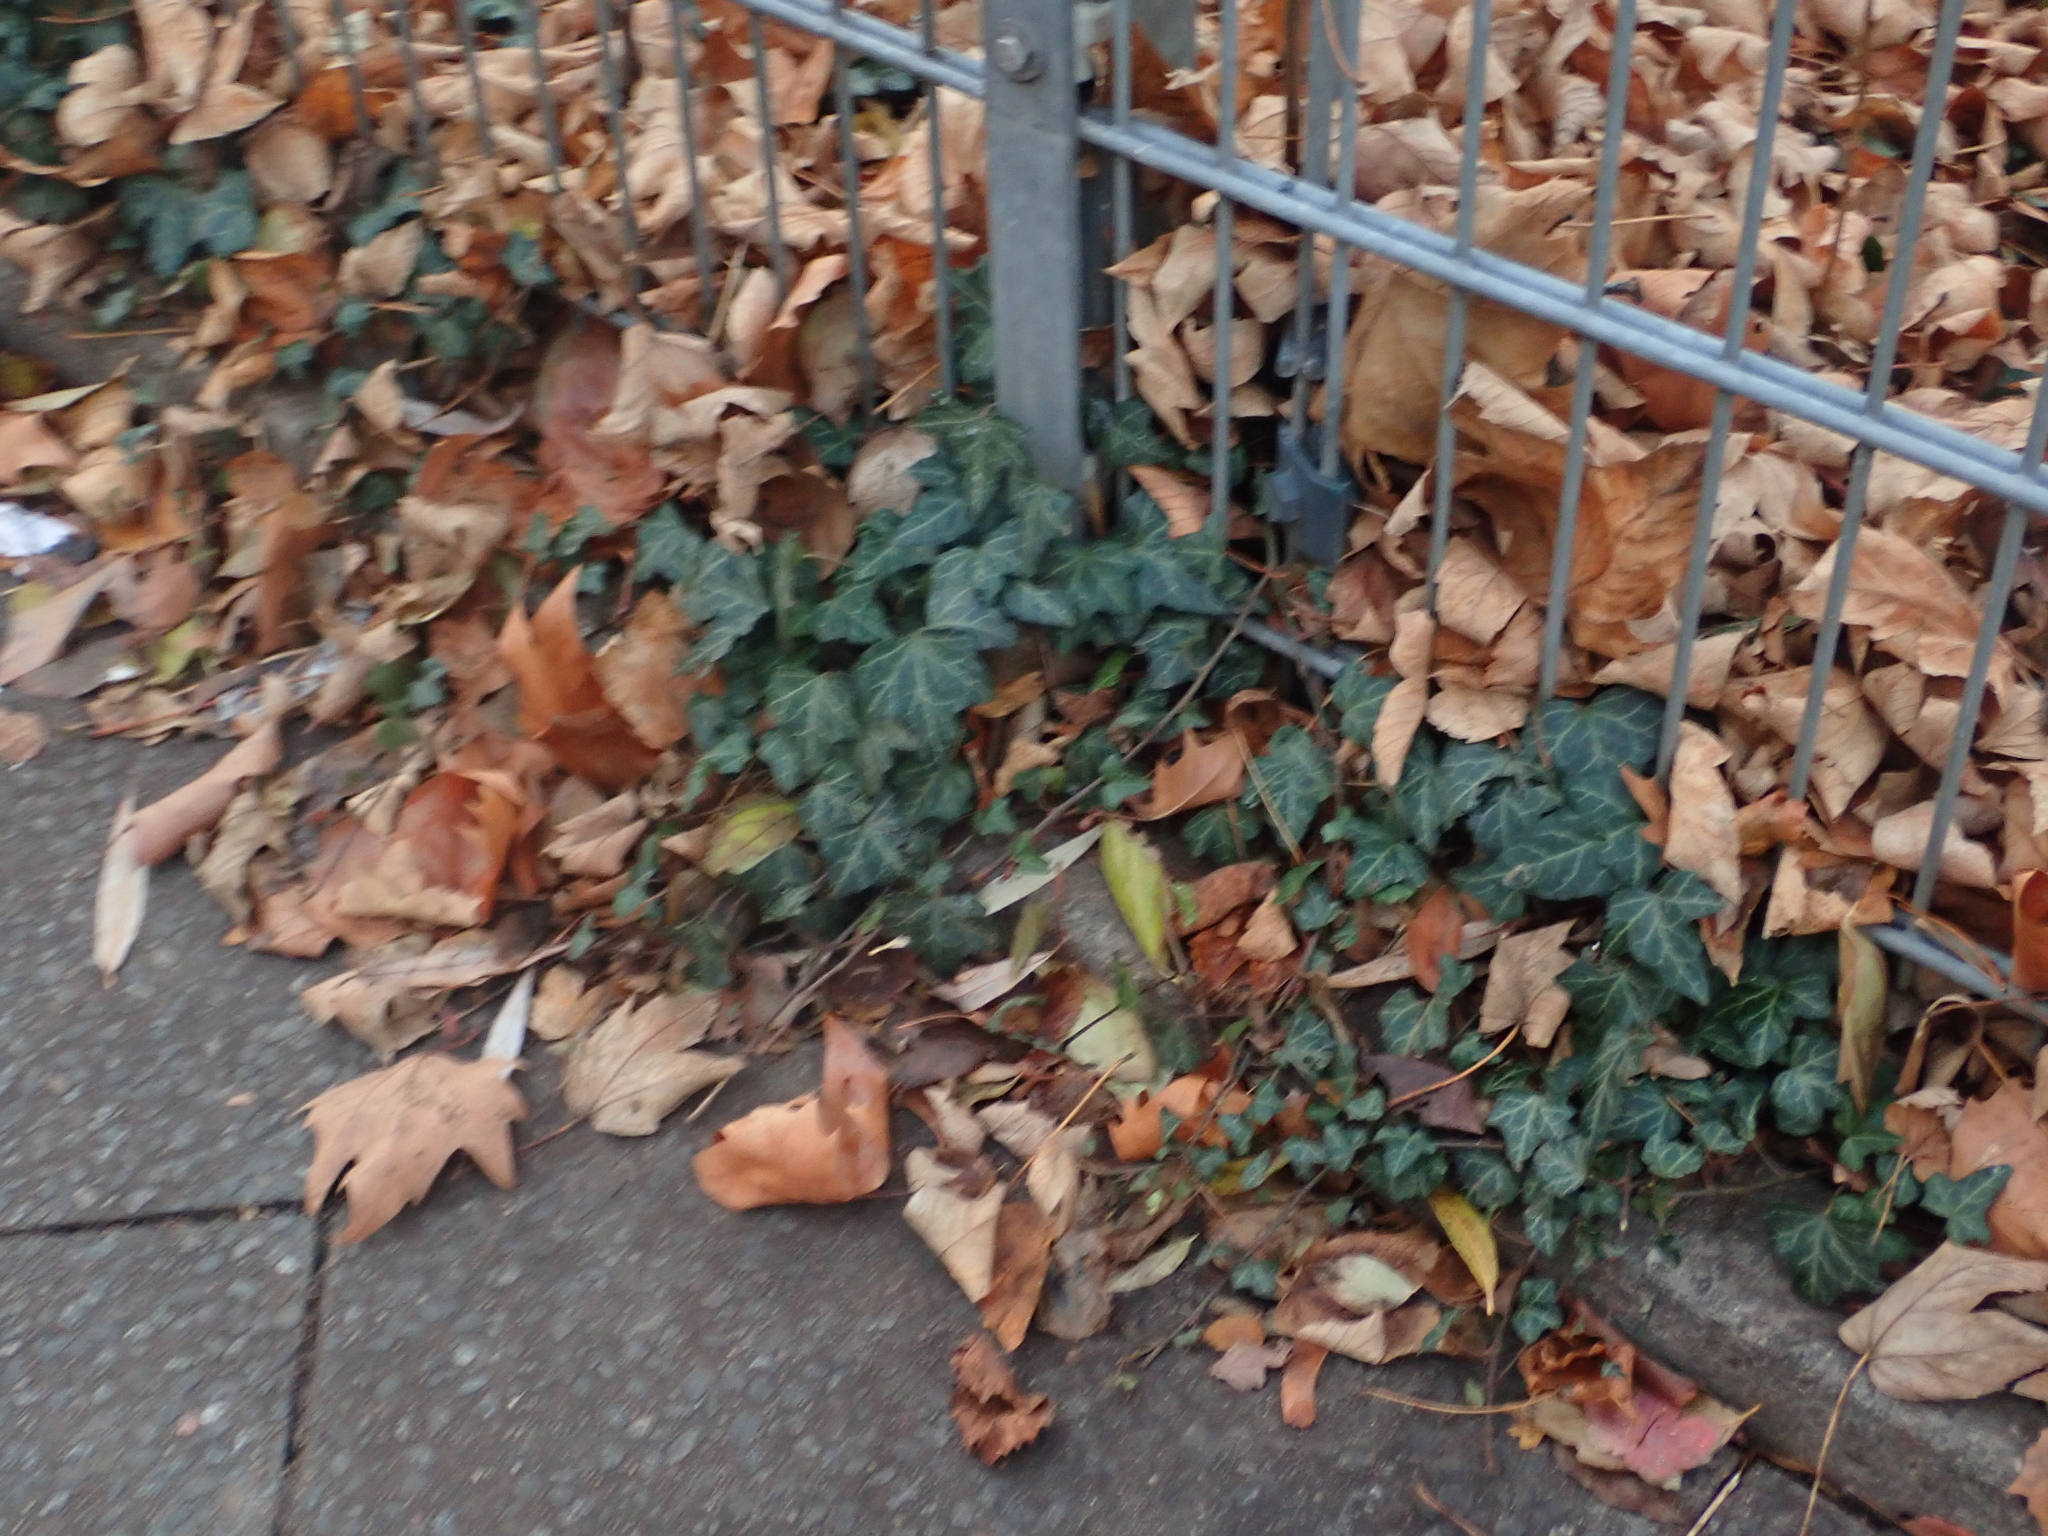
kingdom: Plantae
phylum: Tracheophyta
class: Magnoliopsida
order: Apiales
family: Araliaceae
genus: Hedera
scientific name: Hedera helix
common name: Ivy
